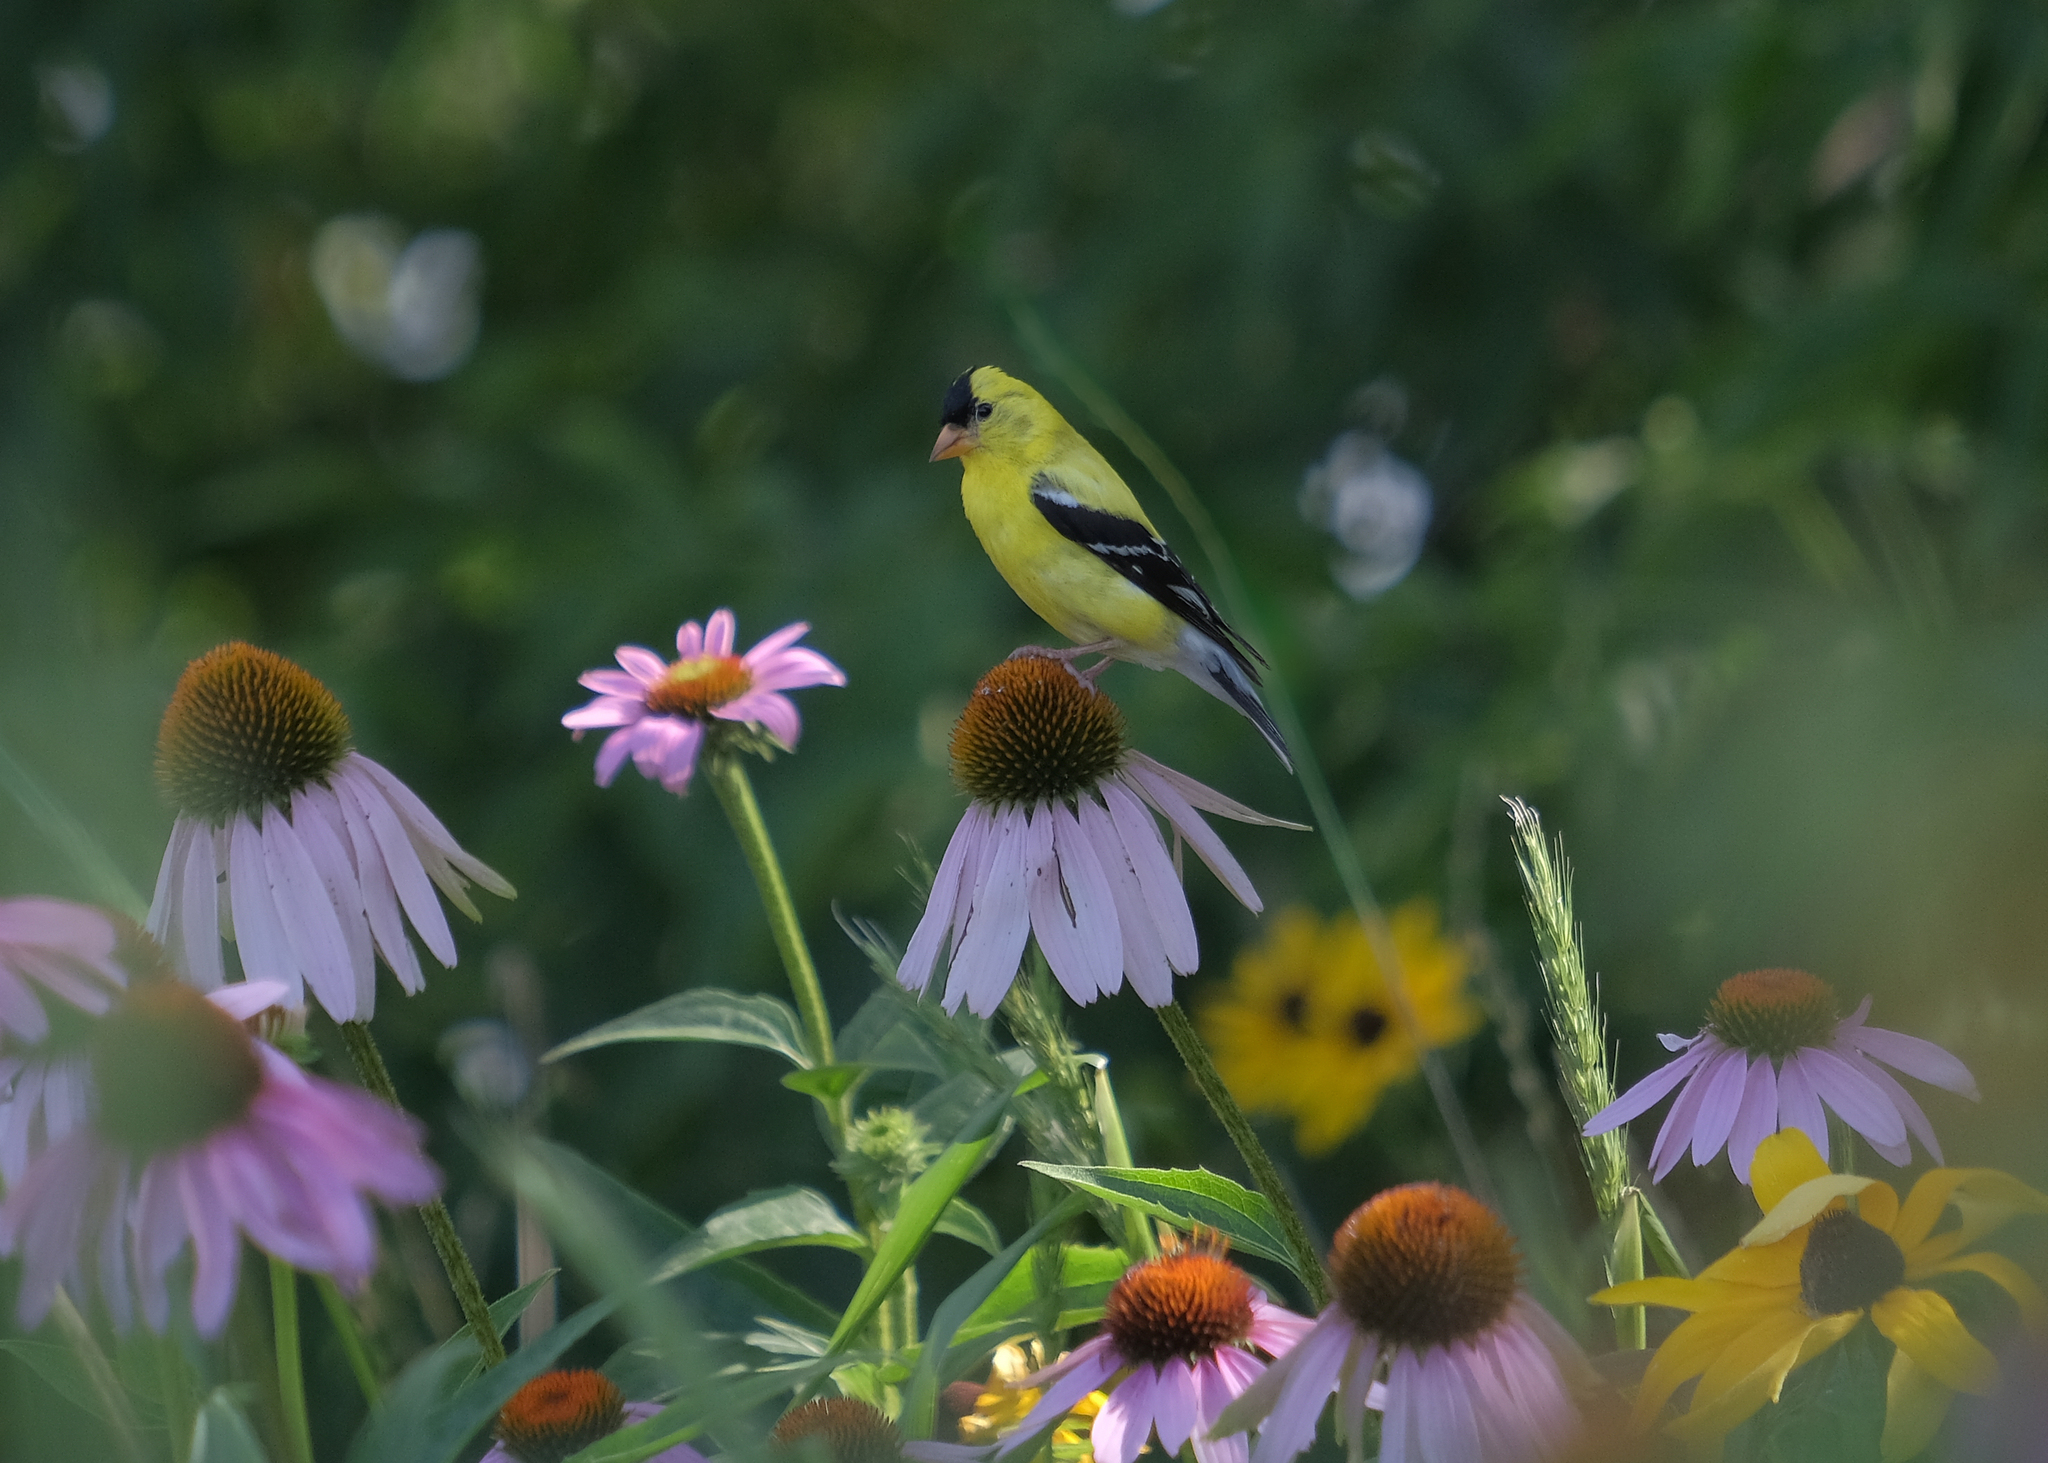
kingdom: Animalia
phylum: Chordata
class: Aves
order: Passeriformes
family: Fringillidae
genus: Spinus
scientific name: Spinus tristis
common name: American goldfinch
